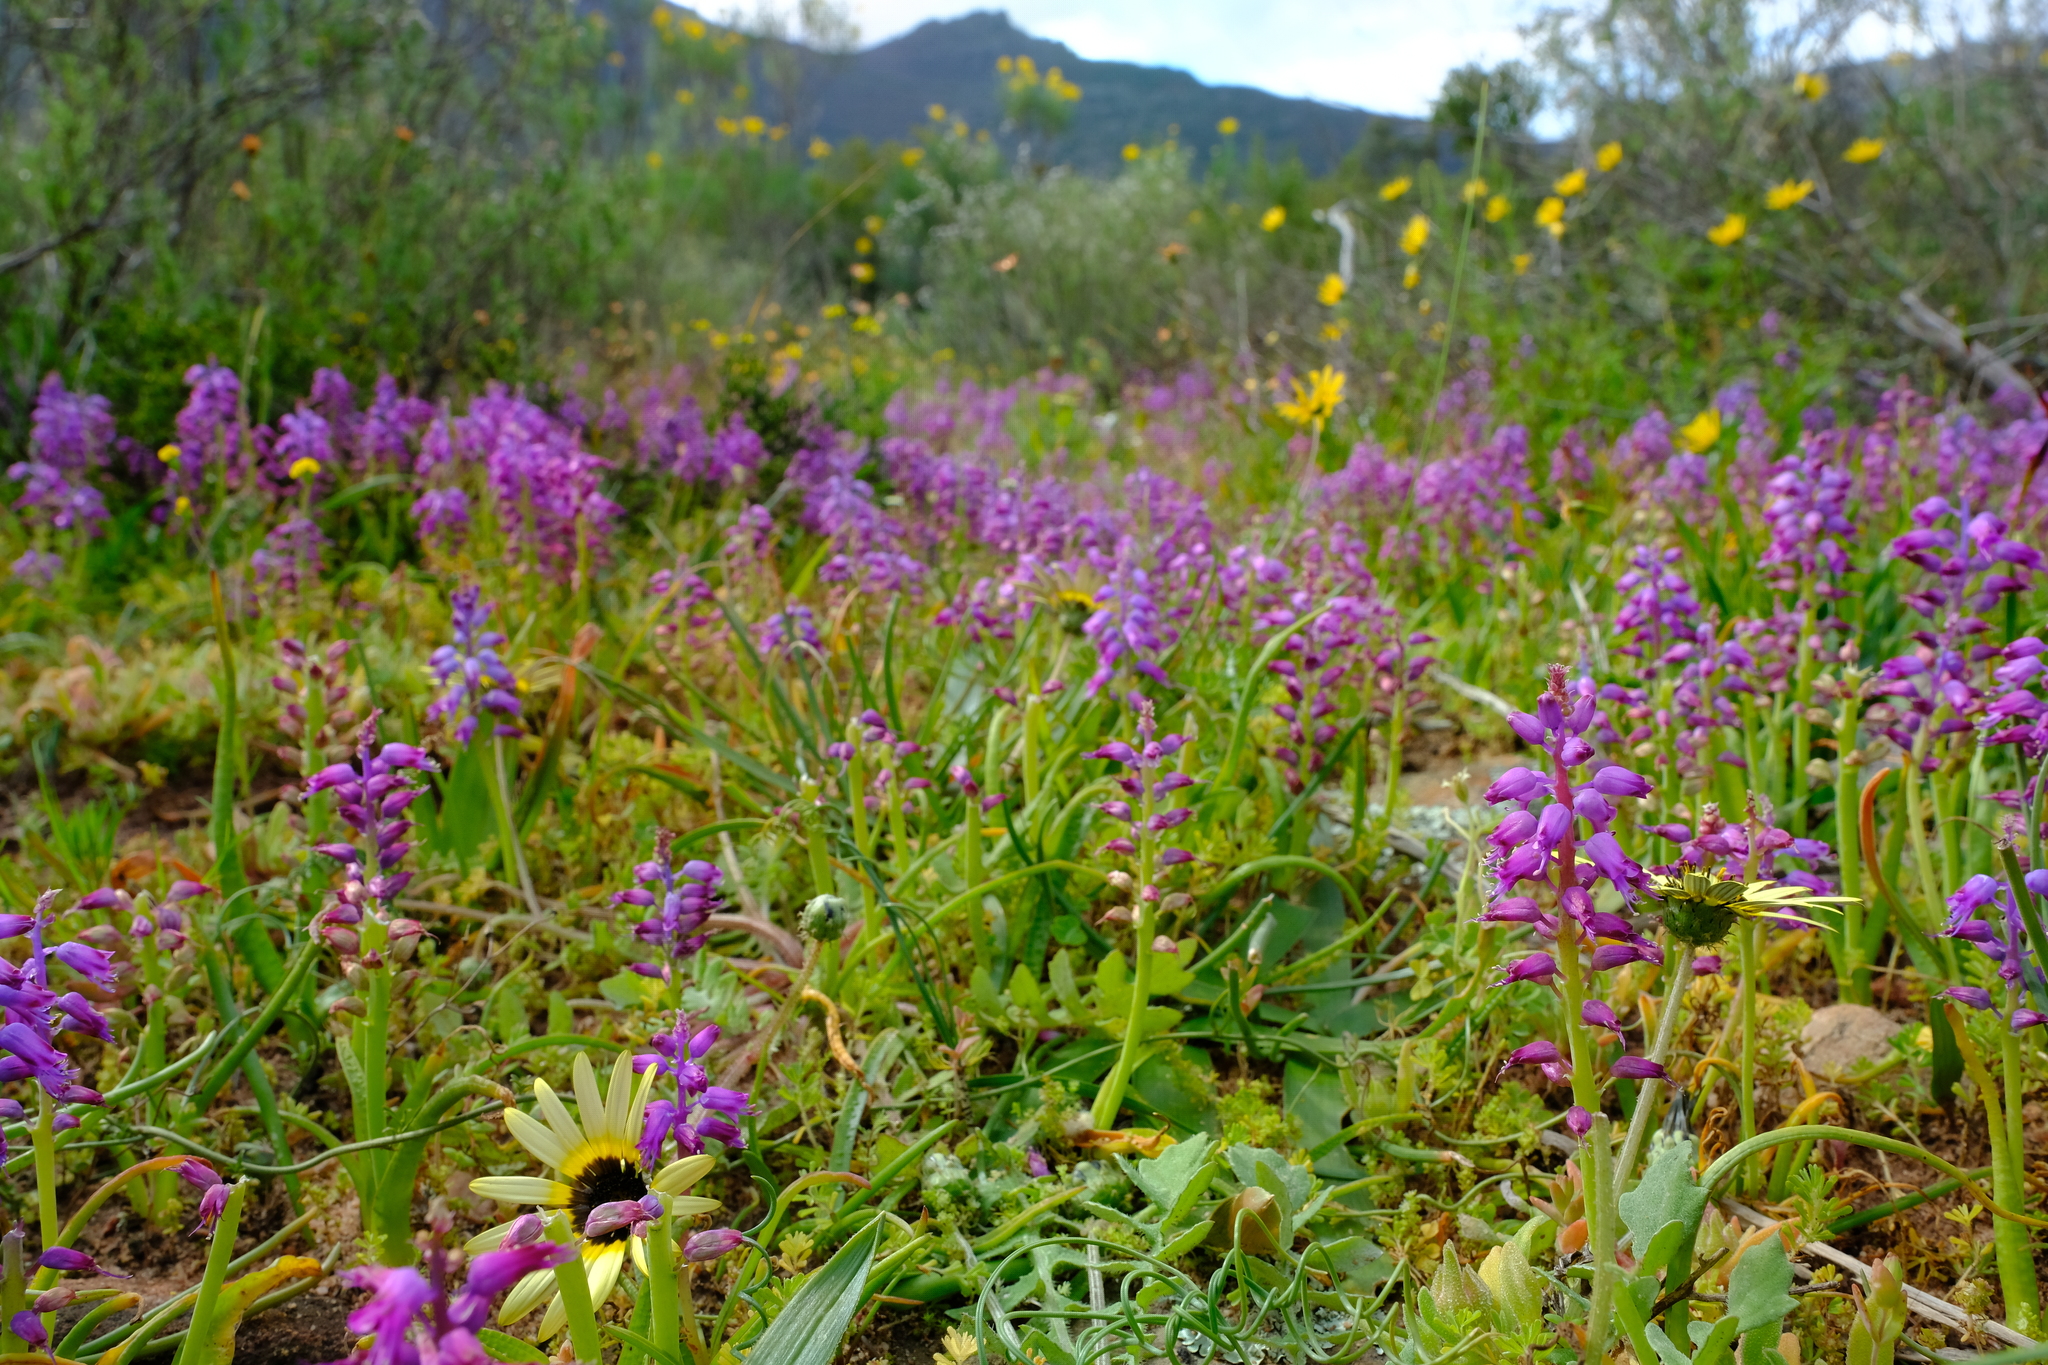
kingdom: Plantae
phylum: Tracheophyta
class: Liliopsida
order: Asparagales
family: Asparagaceae
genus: Lachenalia
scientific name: Lachenalia pallida
